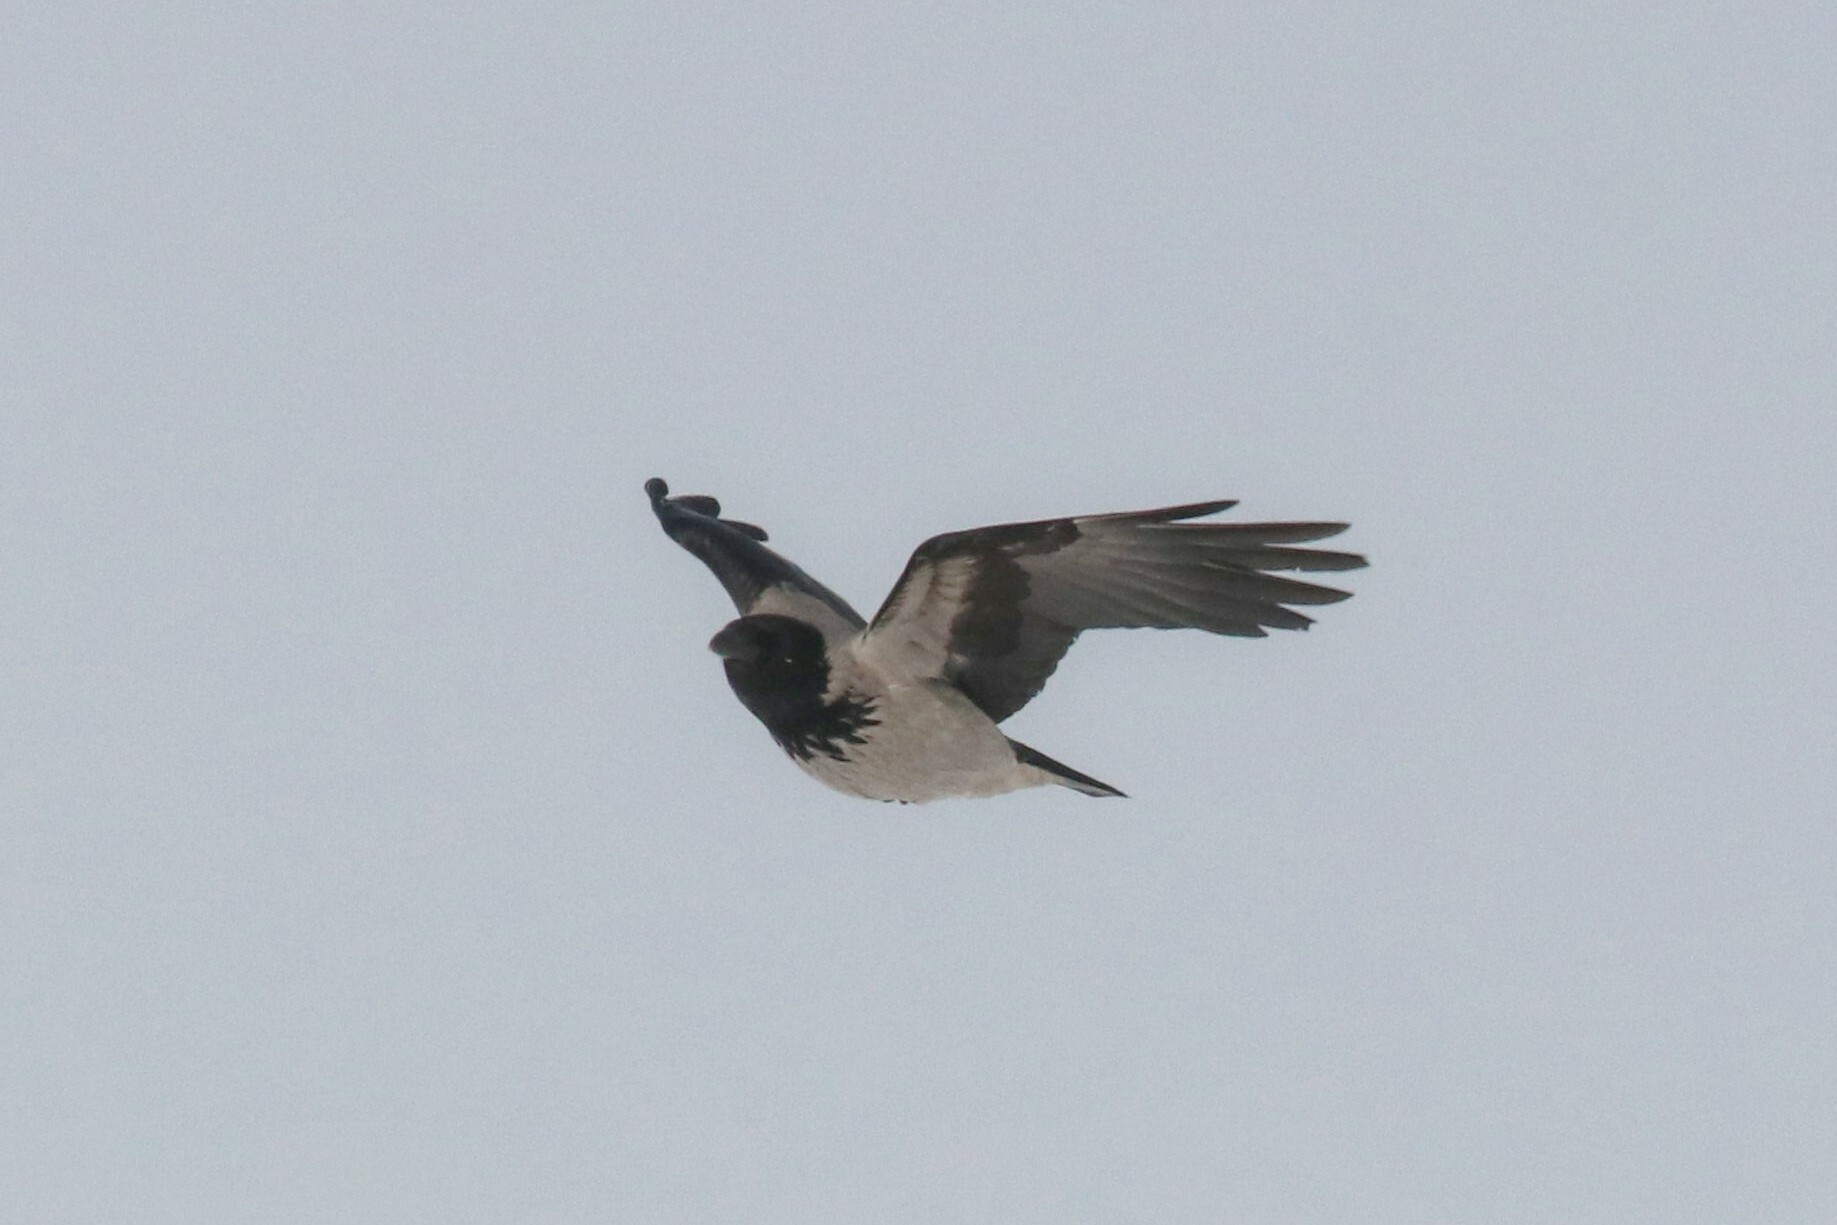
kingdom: Animalia
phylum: Chordata
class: Aves
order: Passeriformes
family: Corvidae
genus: Corvus
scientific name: Corvus cornix
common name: Hooded crow
